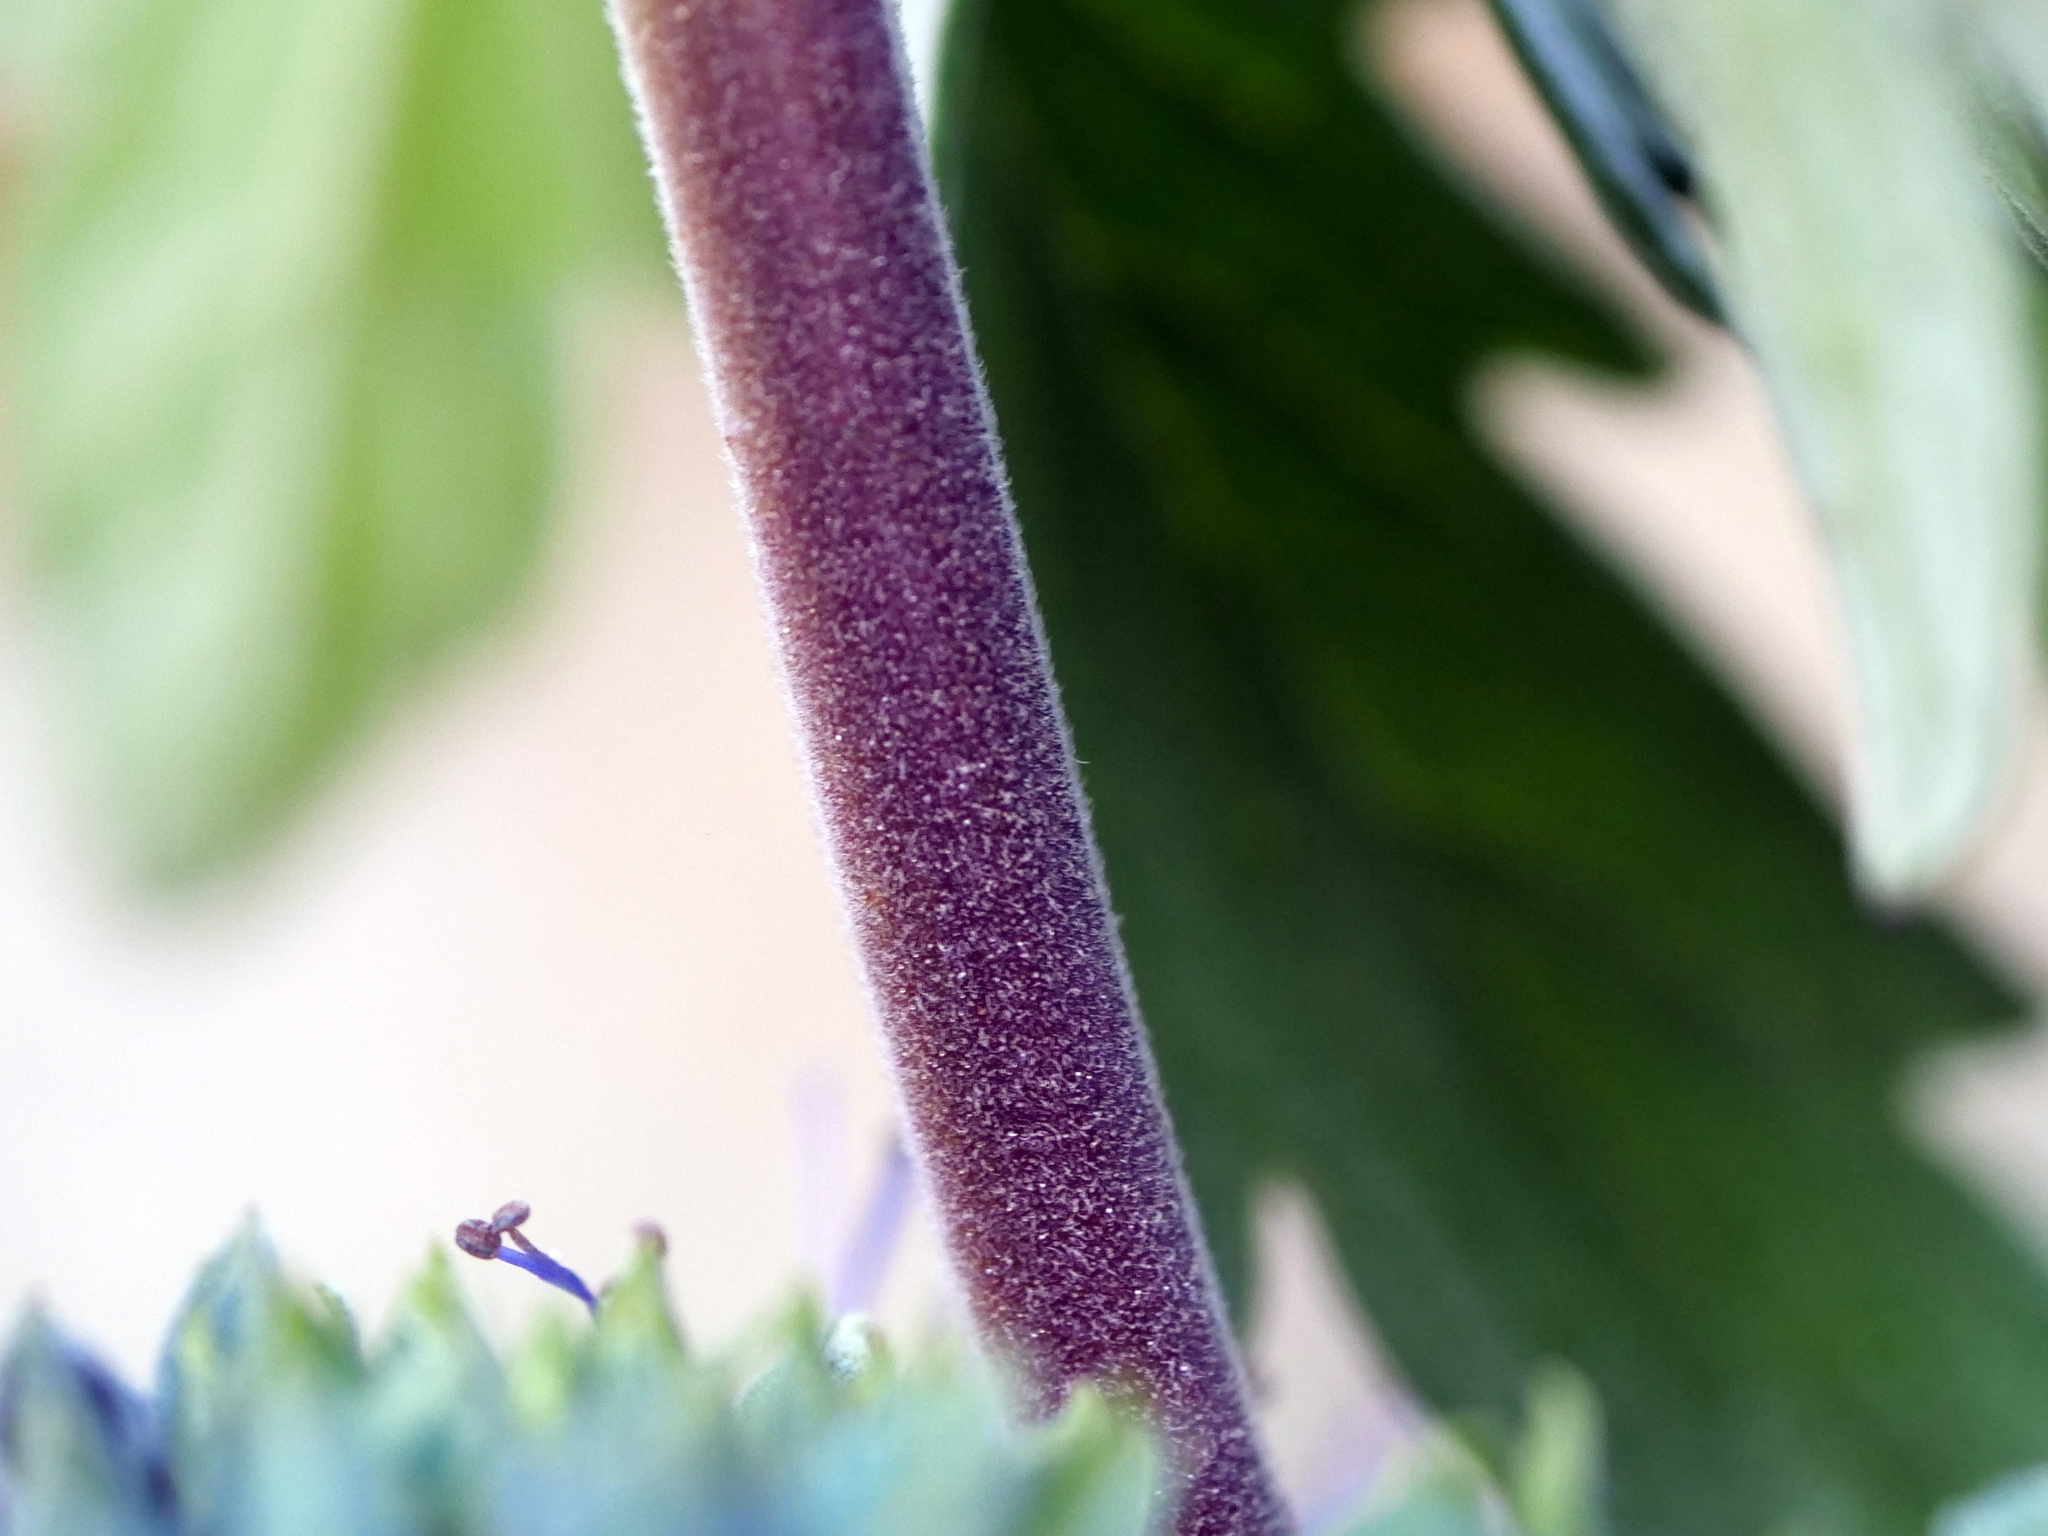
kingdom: Plantae
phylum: Tracheophyta
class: Magnoliopsida
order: Lamiales
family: Lamiaceae
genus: Caryopteris
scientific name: Caryopteris clandonensis
